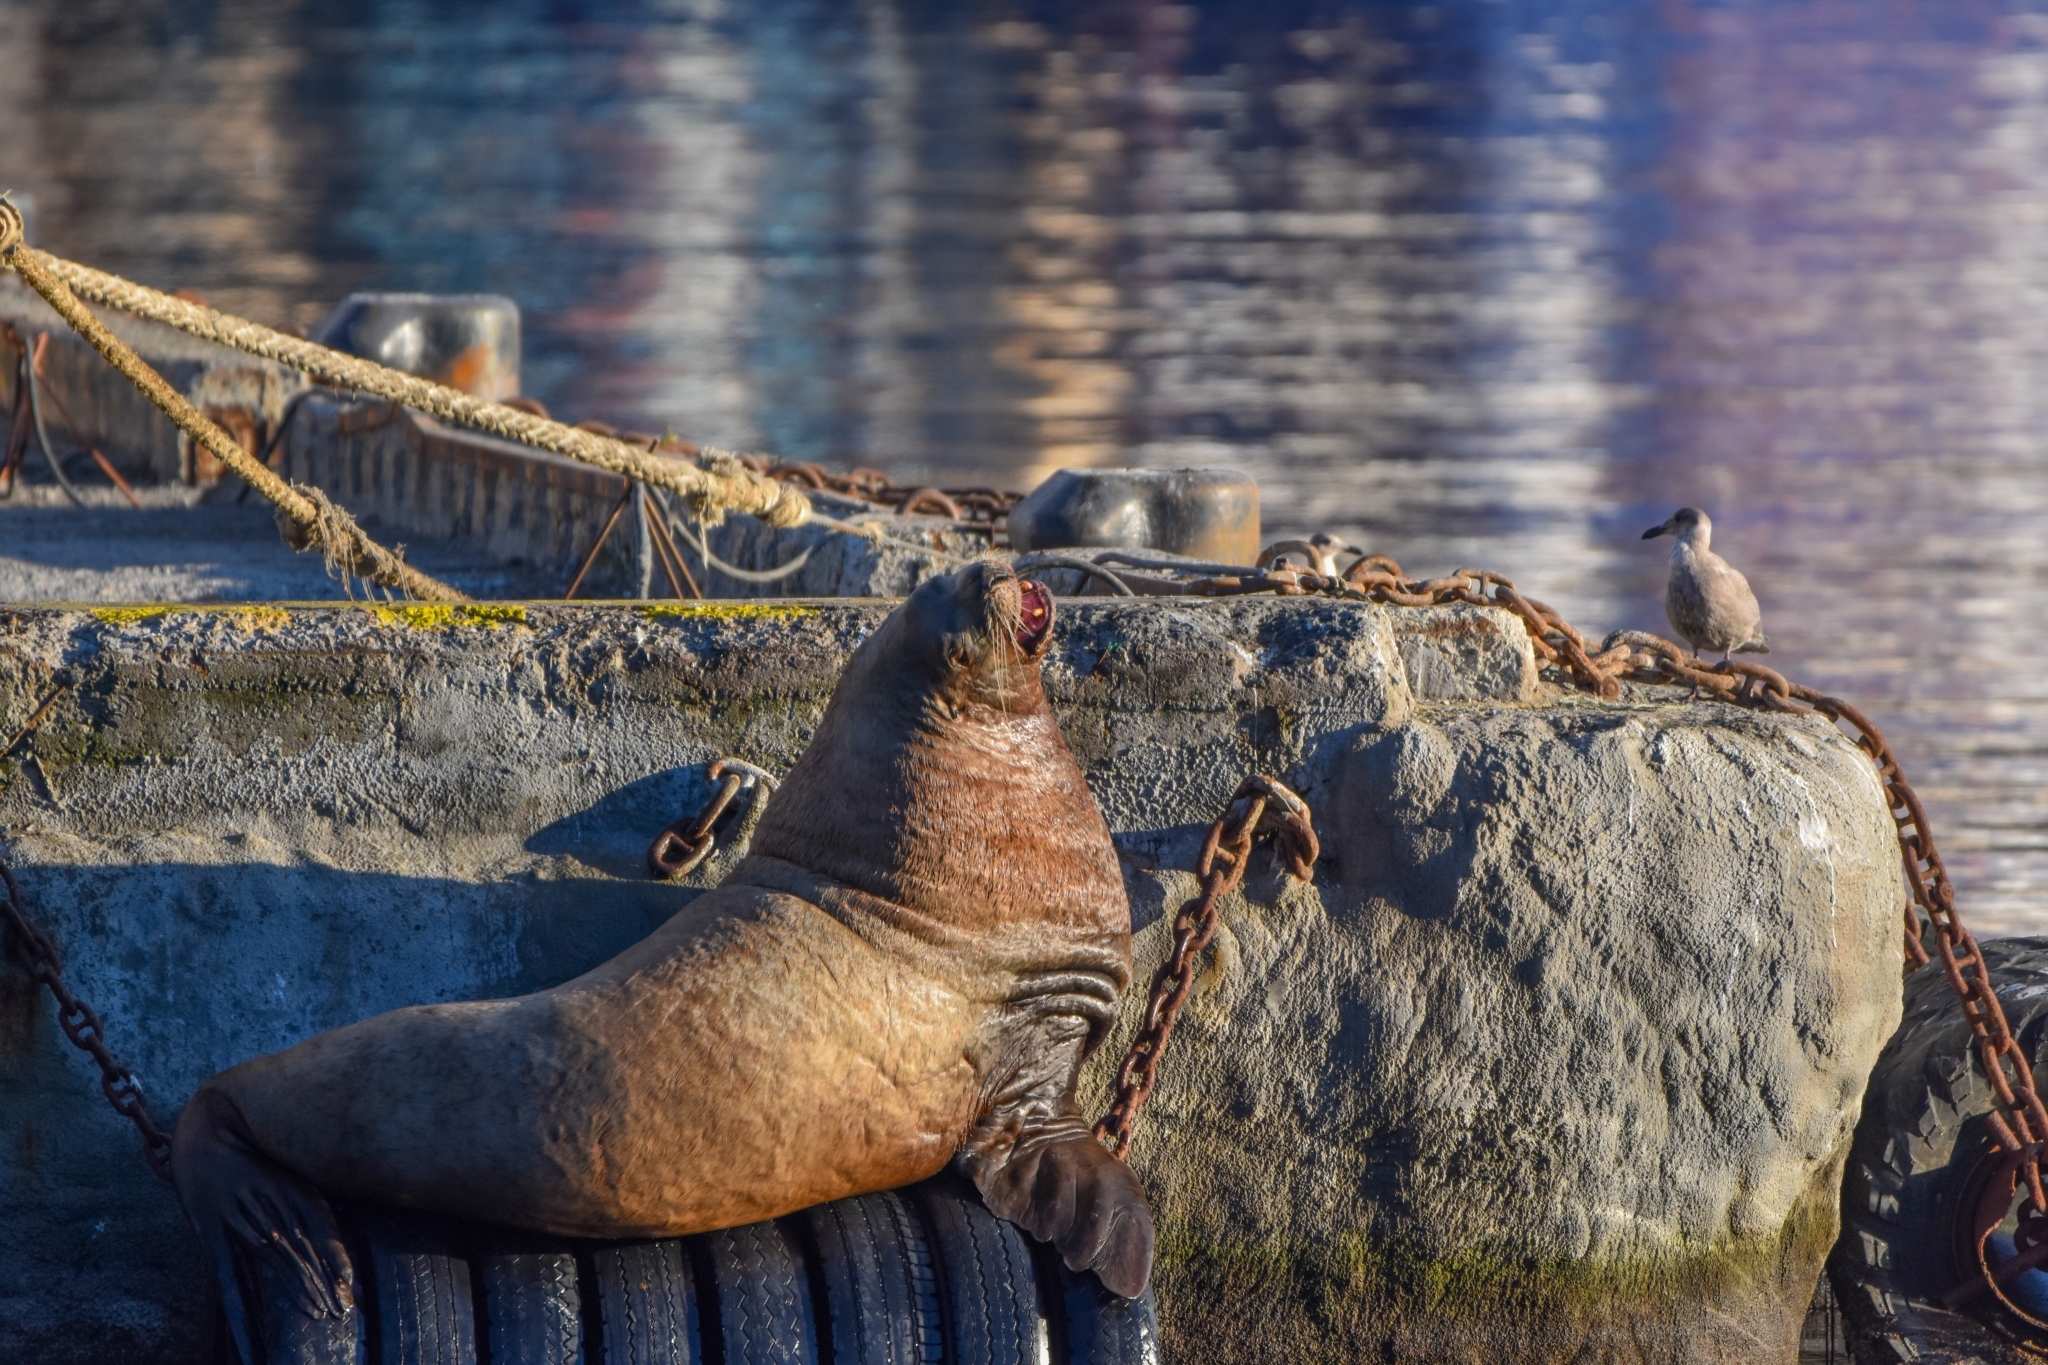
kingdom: Animalia
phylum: Chordata
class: Mammalia
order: Carnivora
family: Otariidae
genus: Eumetopias
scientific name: Eumetopias jubatus
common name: Steller sea lion
